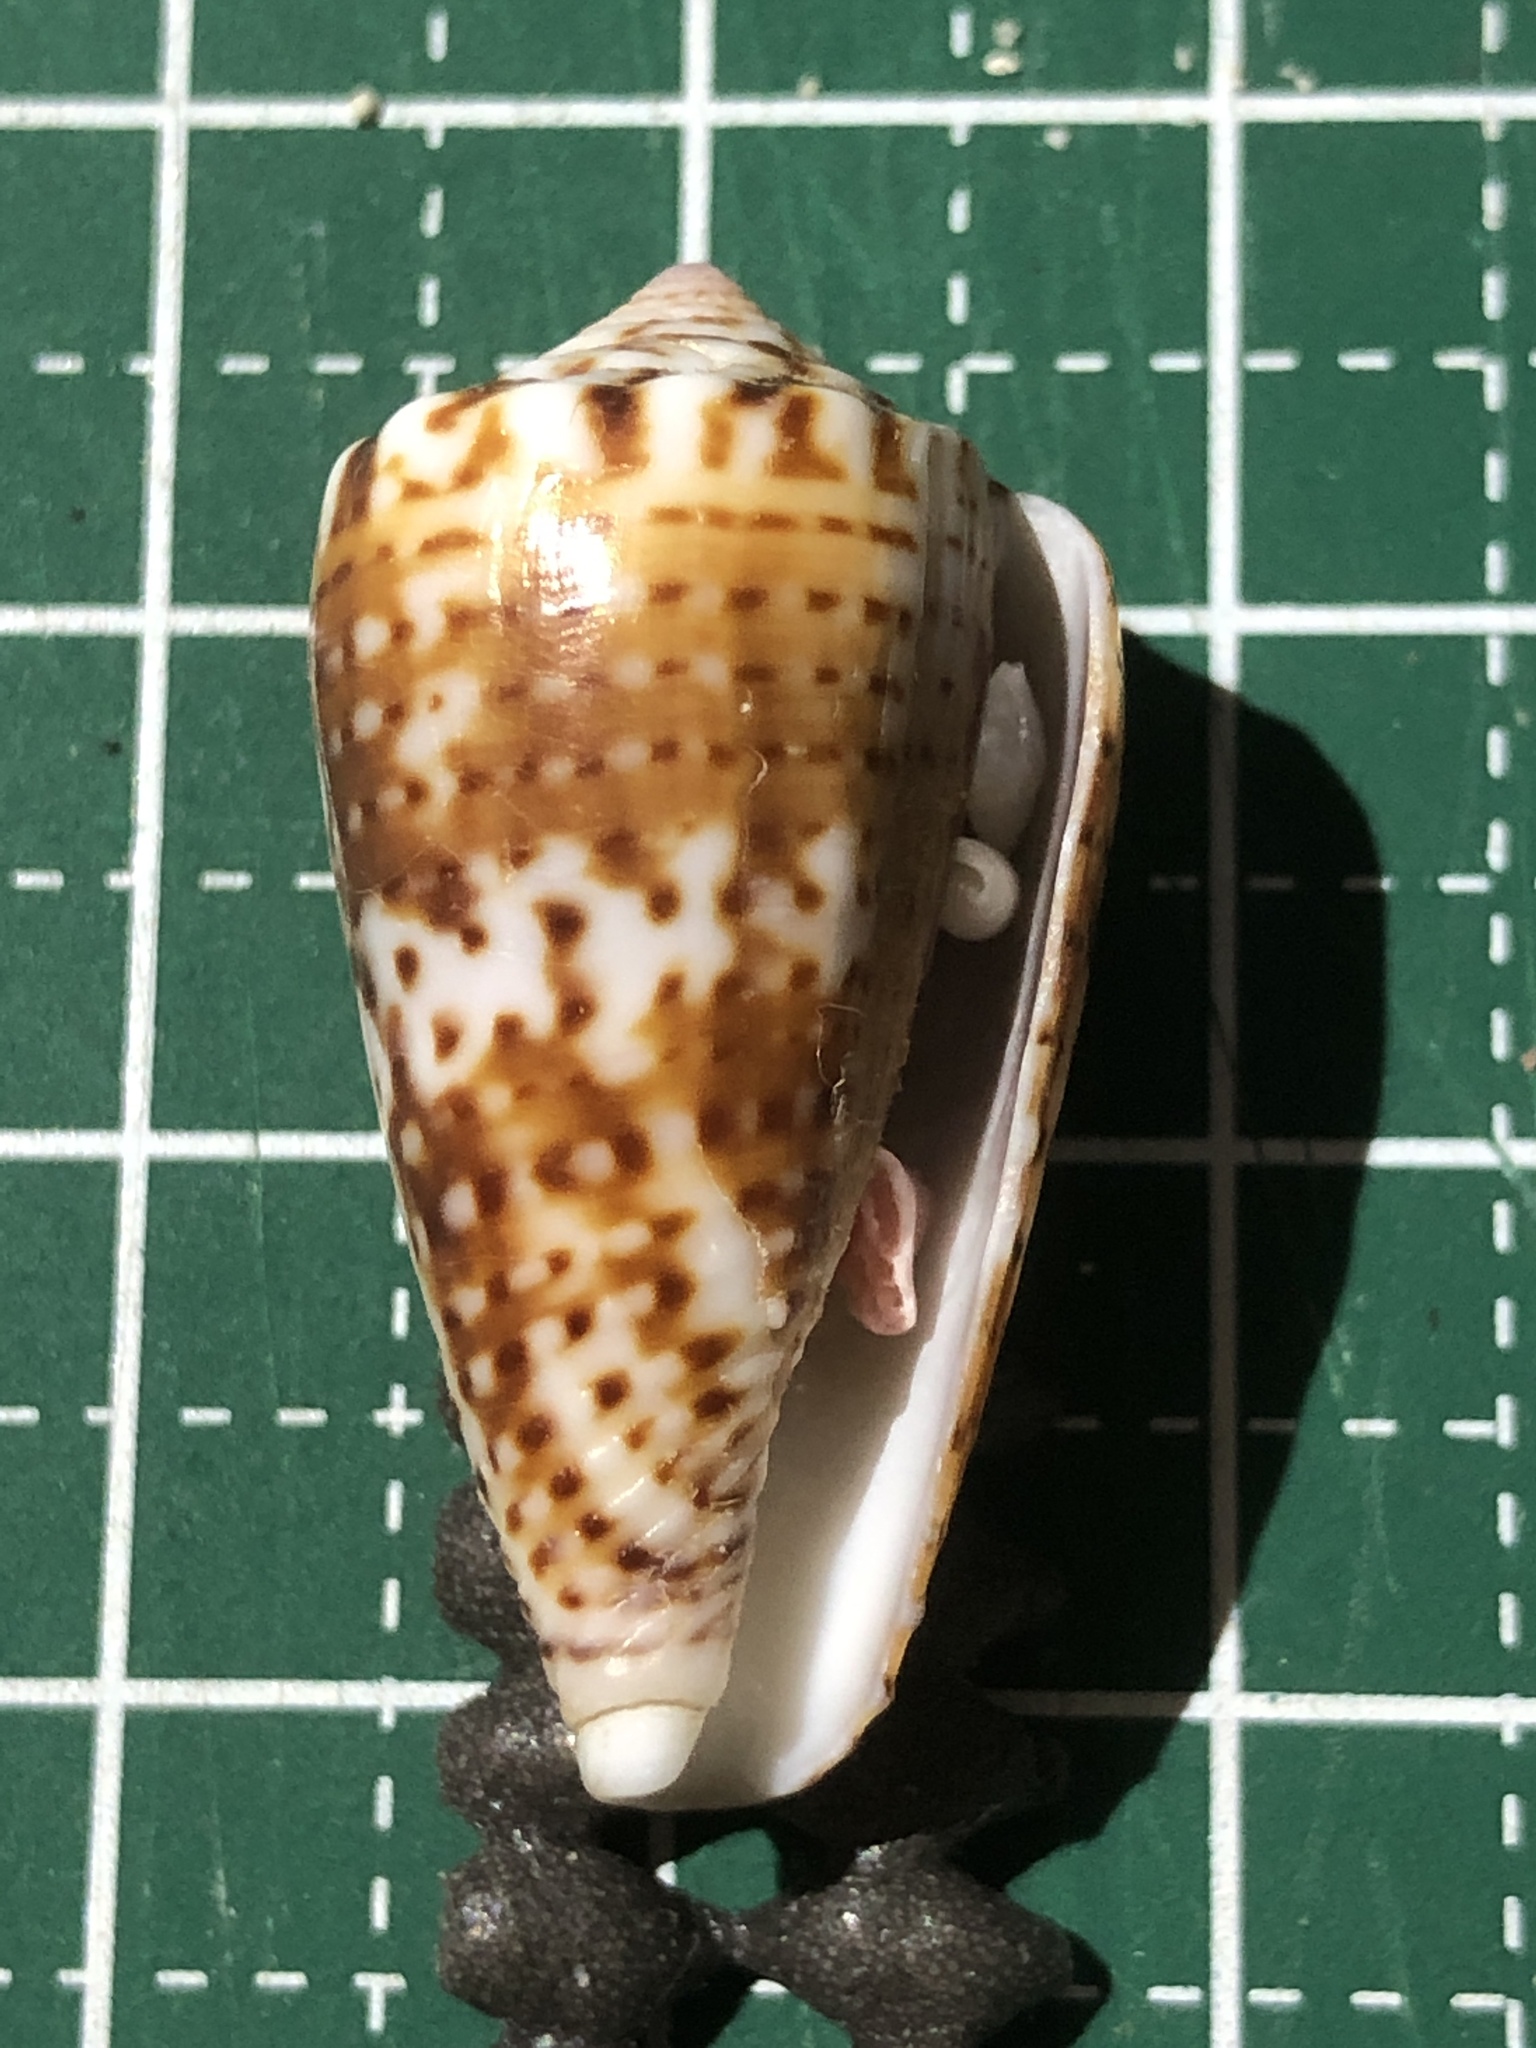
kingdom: Animalia
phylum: Mollusca
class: Gastropoda
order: Neogastropoda
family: Conidae
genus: Conus
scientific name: Conus boeticus
